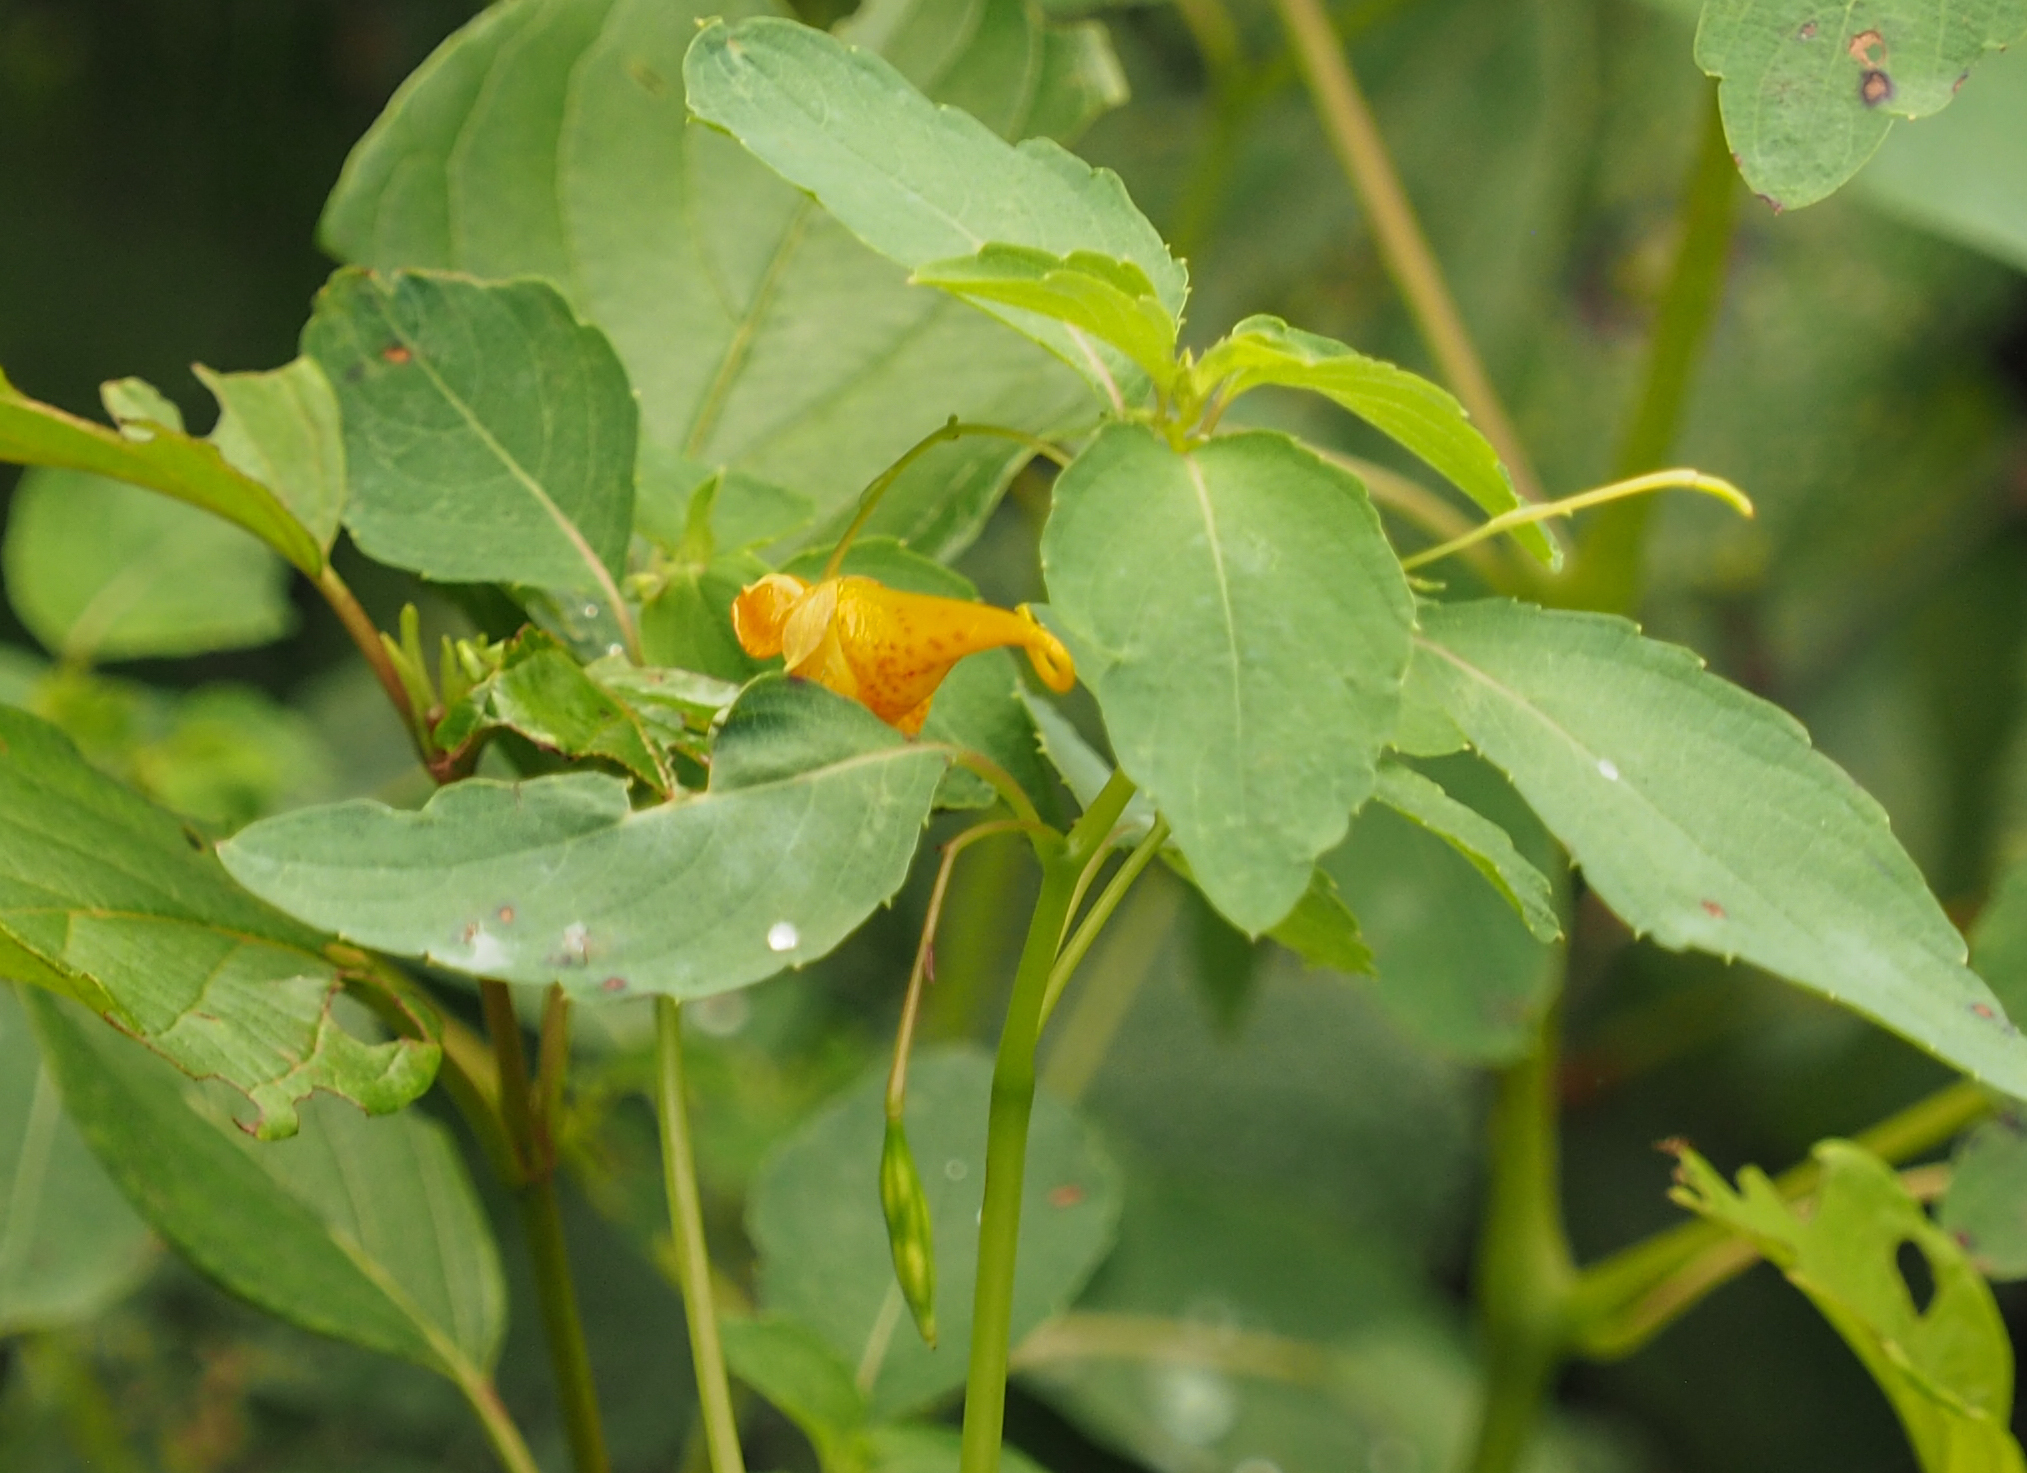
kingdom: Plantae
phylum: Tracheophyta
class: Magnoliopsida
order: Ericales
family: Balsaminaceae
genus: Impatiens
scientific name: Impatiens capensis
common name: Orange balsam
